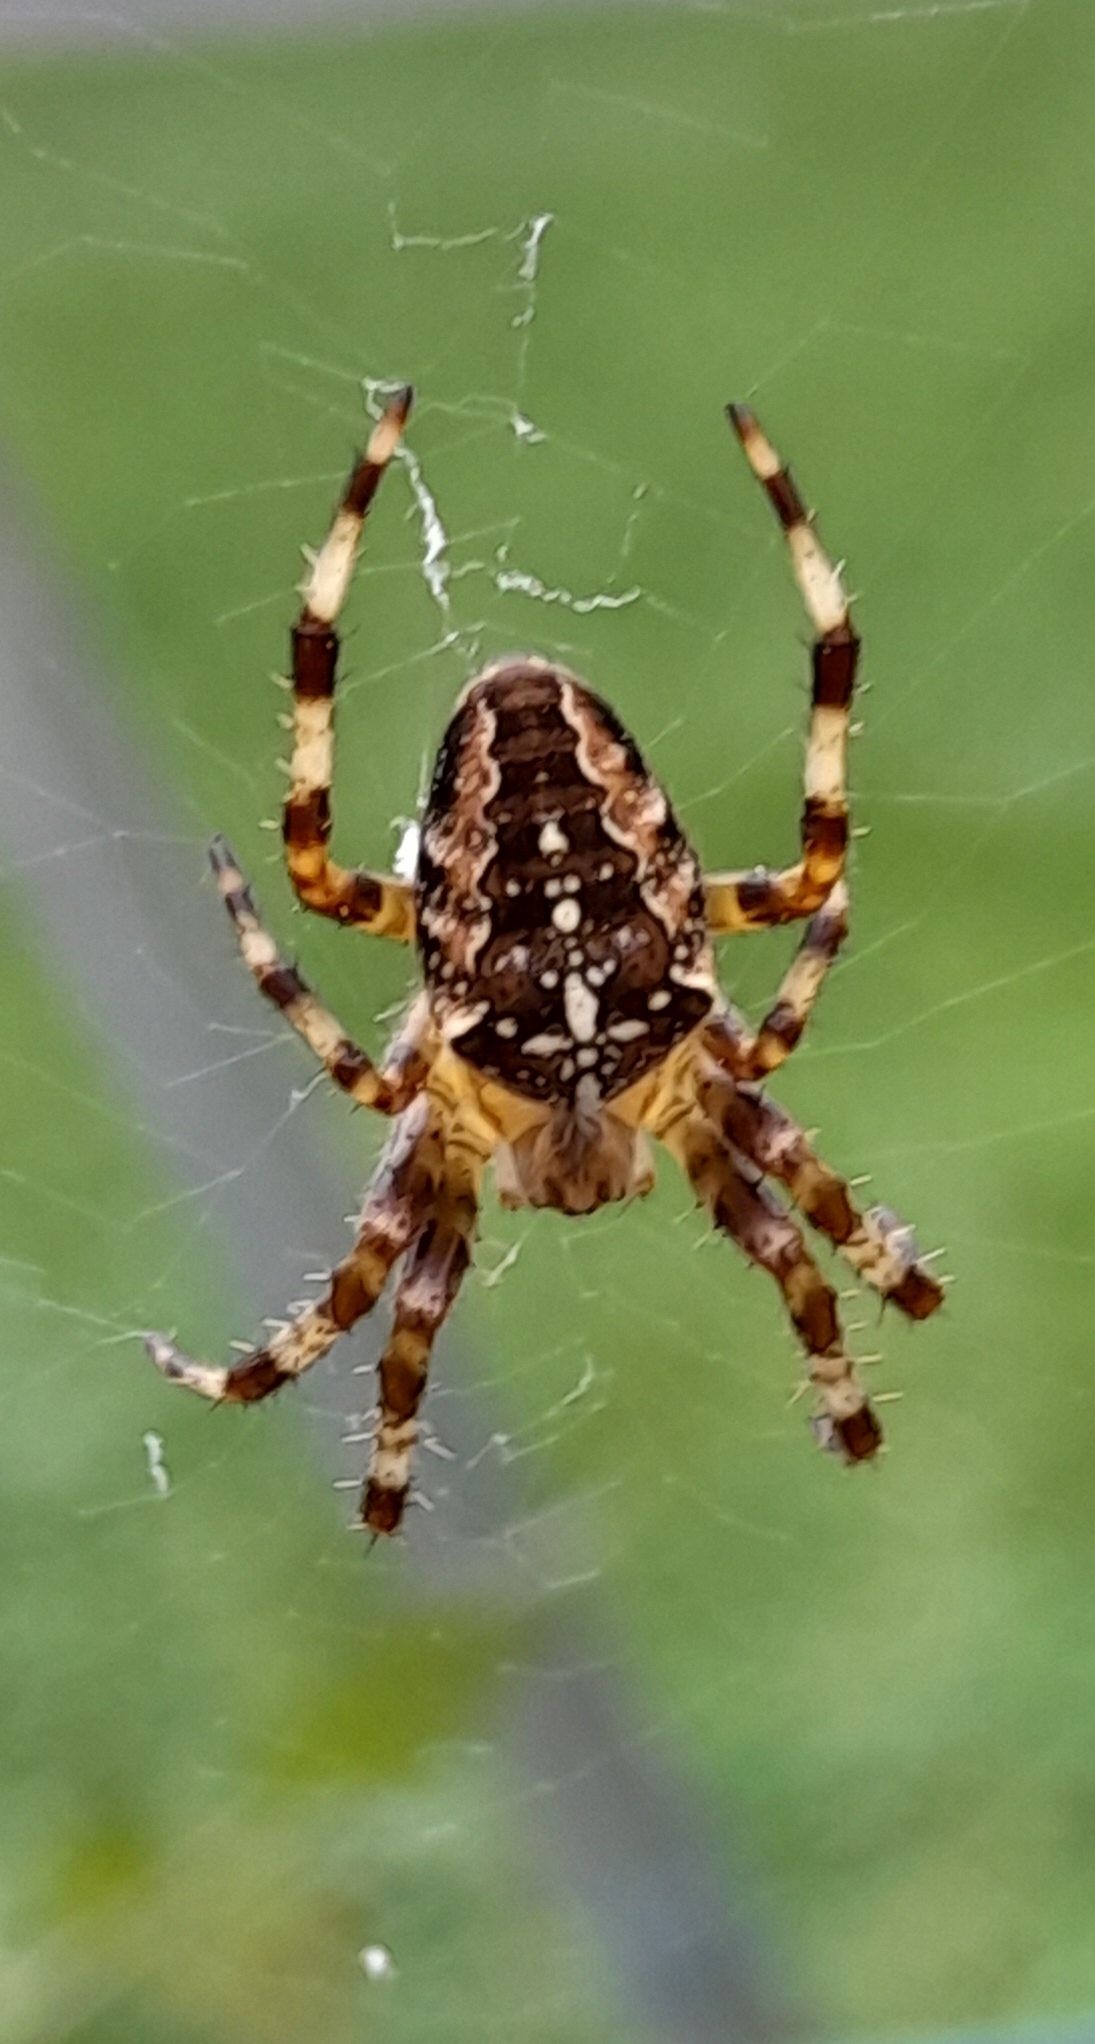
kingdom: Animalia
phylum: Arthropoda
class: Arachnida
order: Araneae
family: Araneidae
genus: Araneus
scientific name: Araneus diadematus
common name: Cross orbweaver
